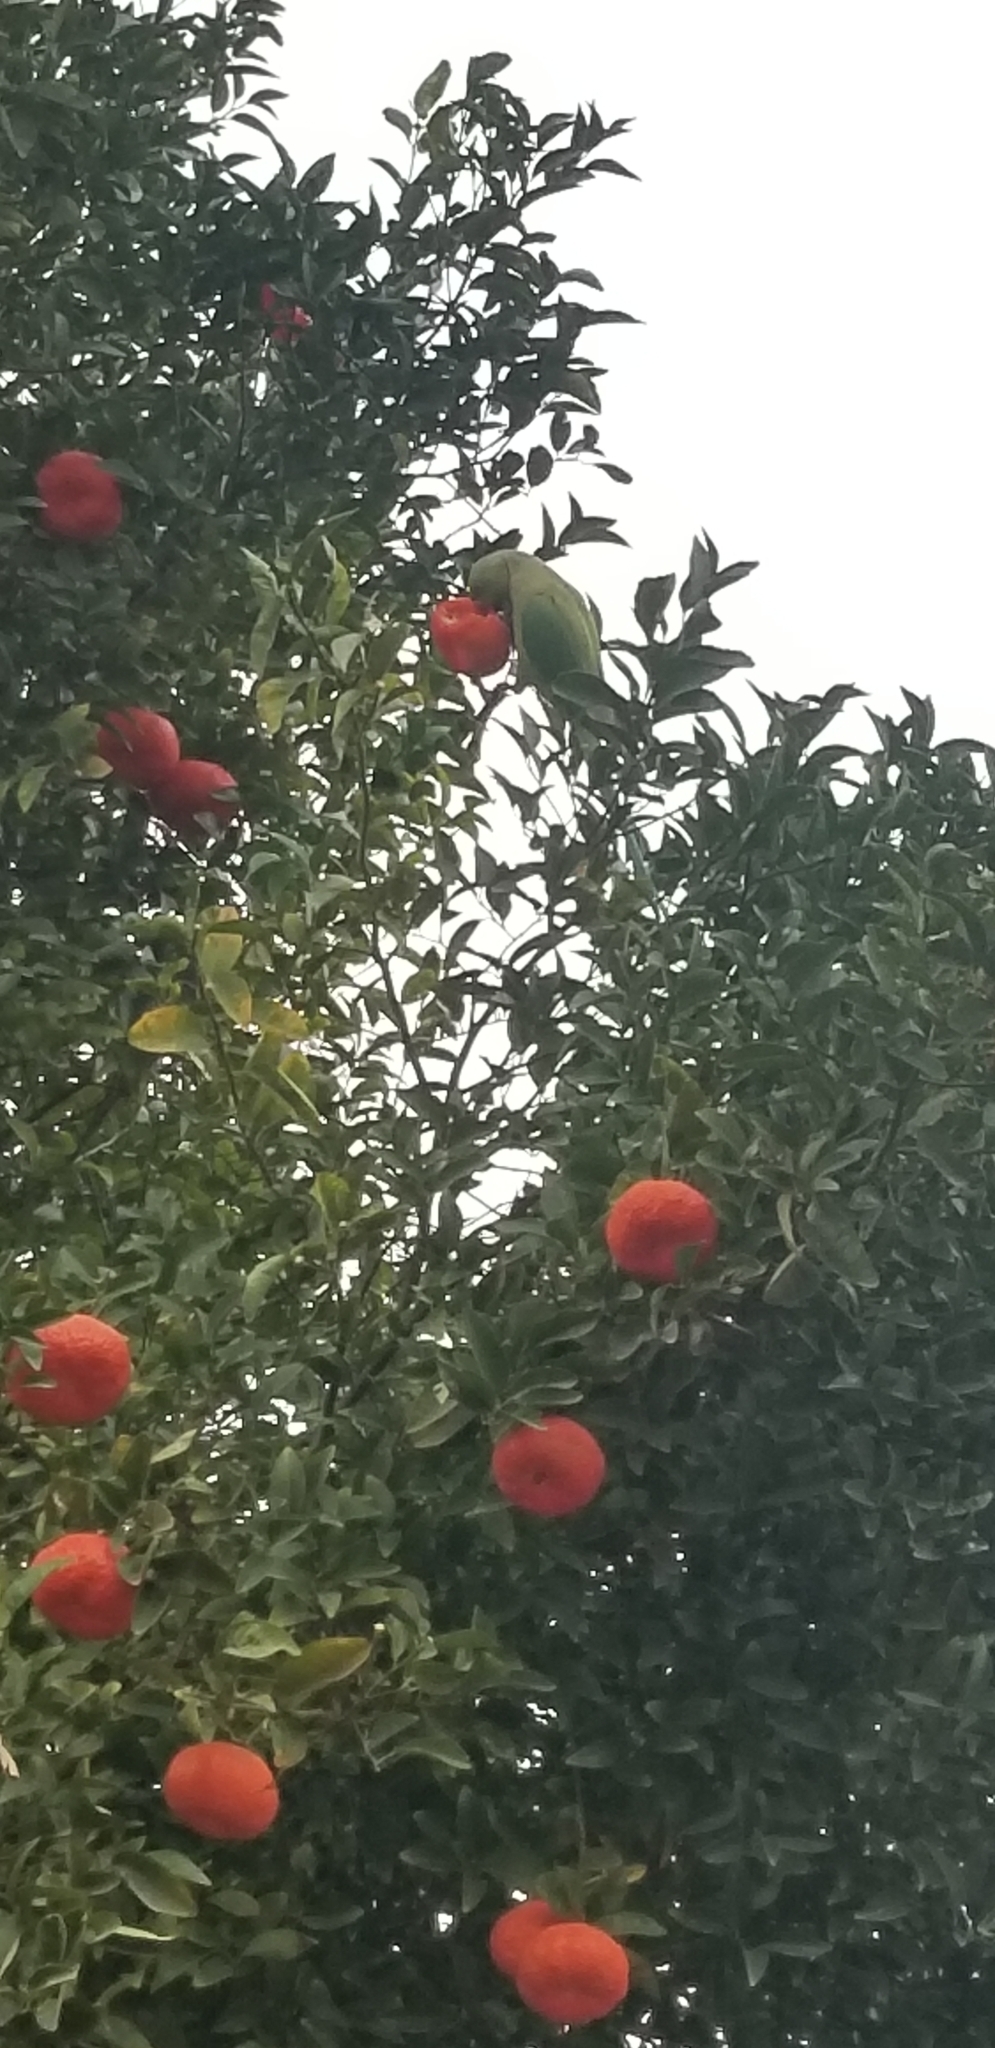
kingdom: Animalia
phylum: Chordata
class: Aves
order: Psittaciformes
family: Psittacidae
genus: Psittacula
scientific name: Psittacula krameri
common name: Rose-ringed parakeet
